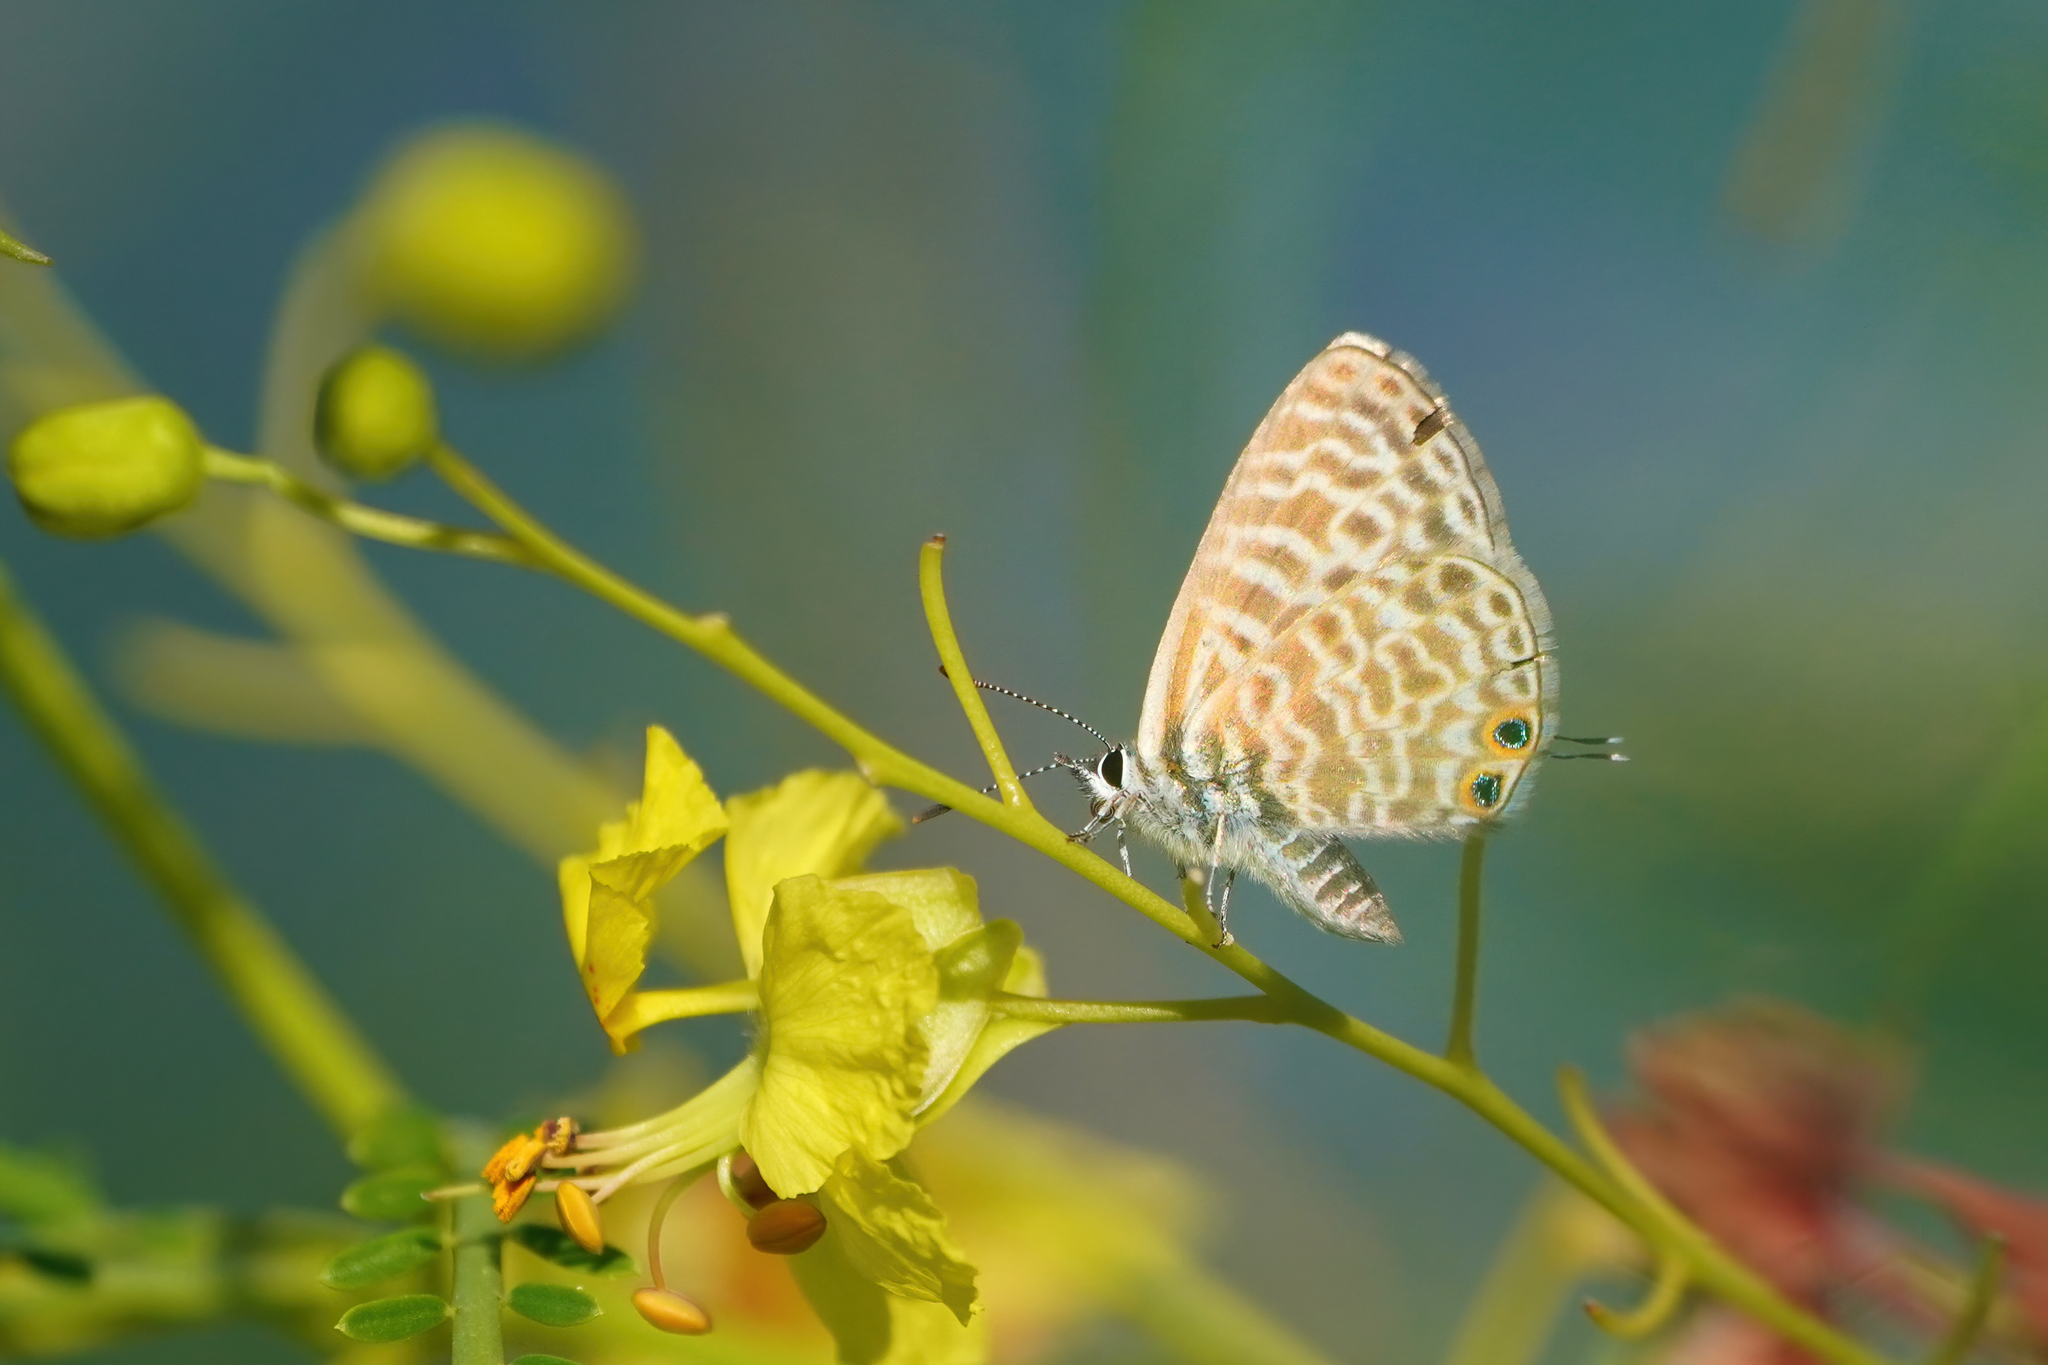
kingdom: Animalia
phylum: Arthropoda
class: Insecta
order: Lepidoptera
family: Lycaenidae
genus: Leptotes
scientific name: Leptotes pirithous
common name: Lang's short-tailed blue
